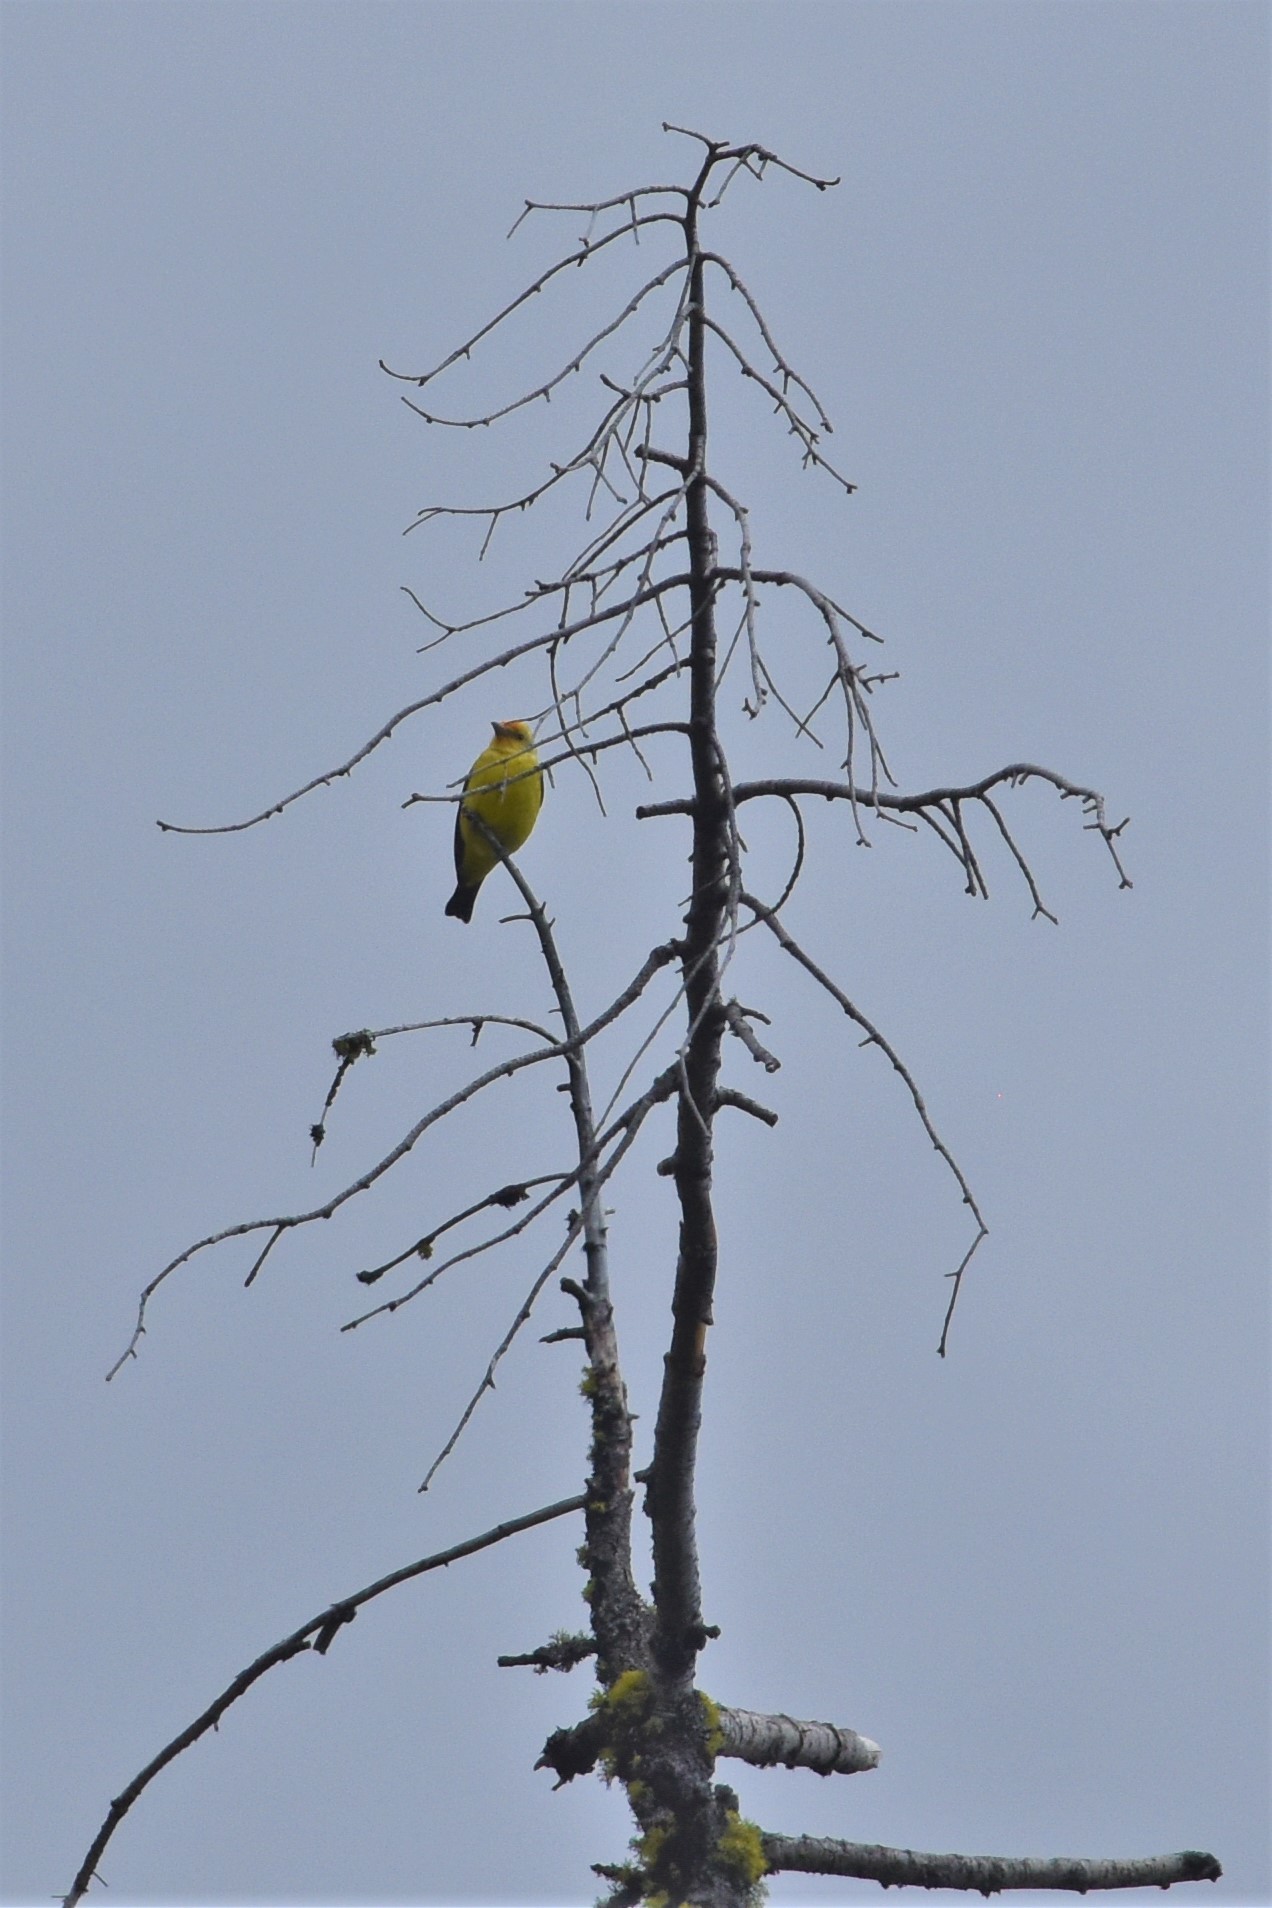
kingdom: Animalia
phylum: Chordata
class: Aves
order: Passeriformes
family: Cardinalidae
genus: Piranga
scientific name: Piranga ludoviciana
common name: Western tanager
